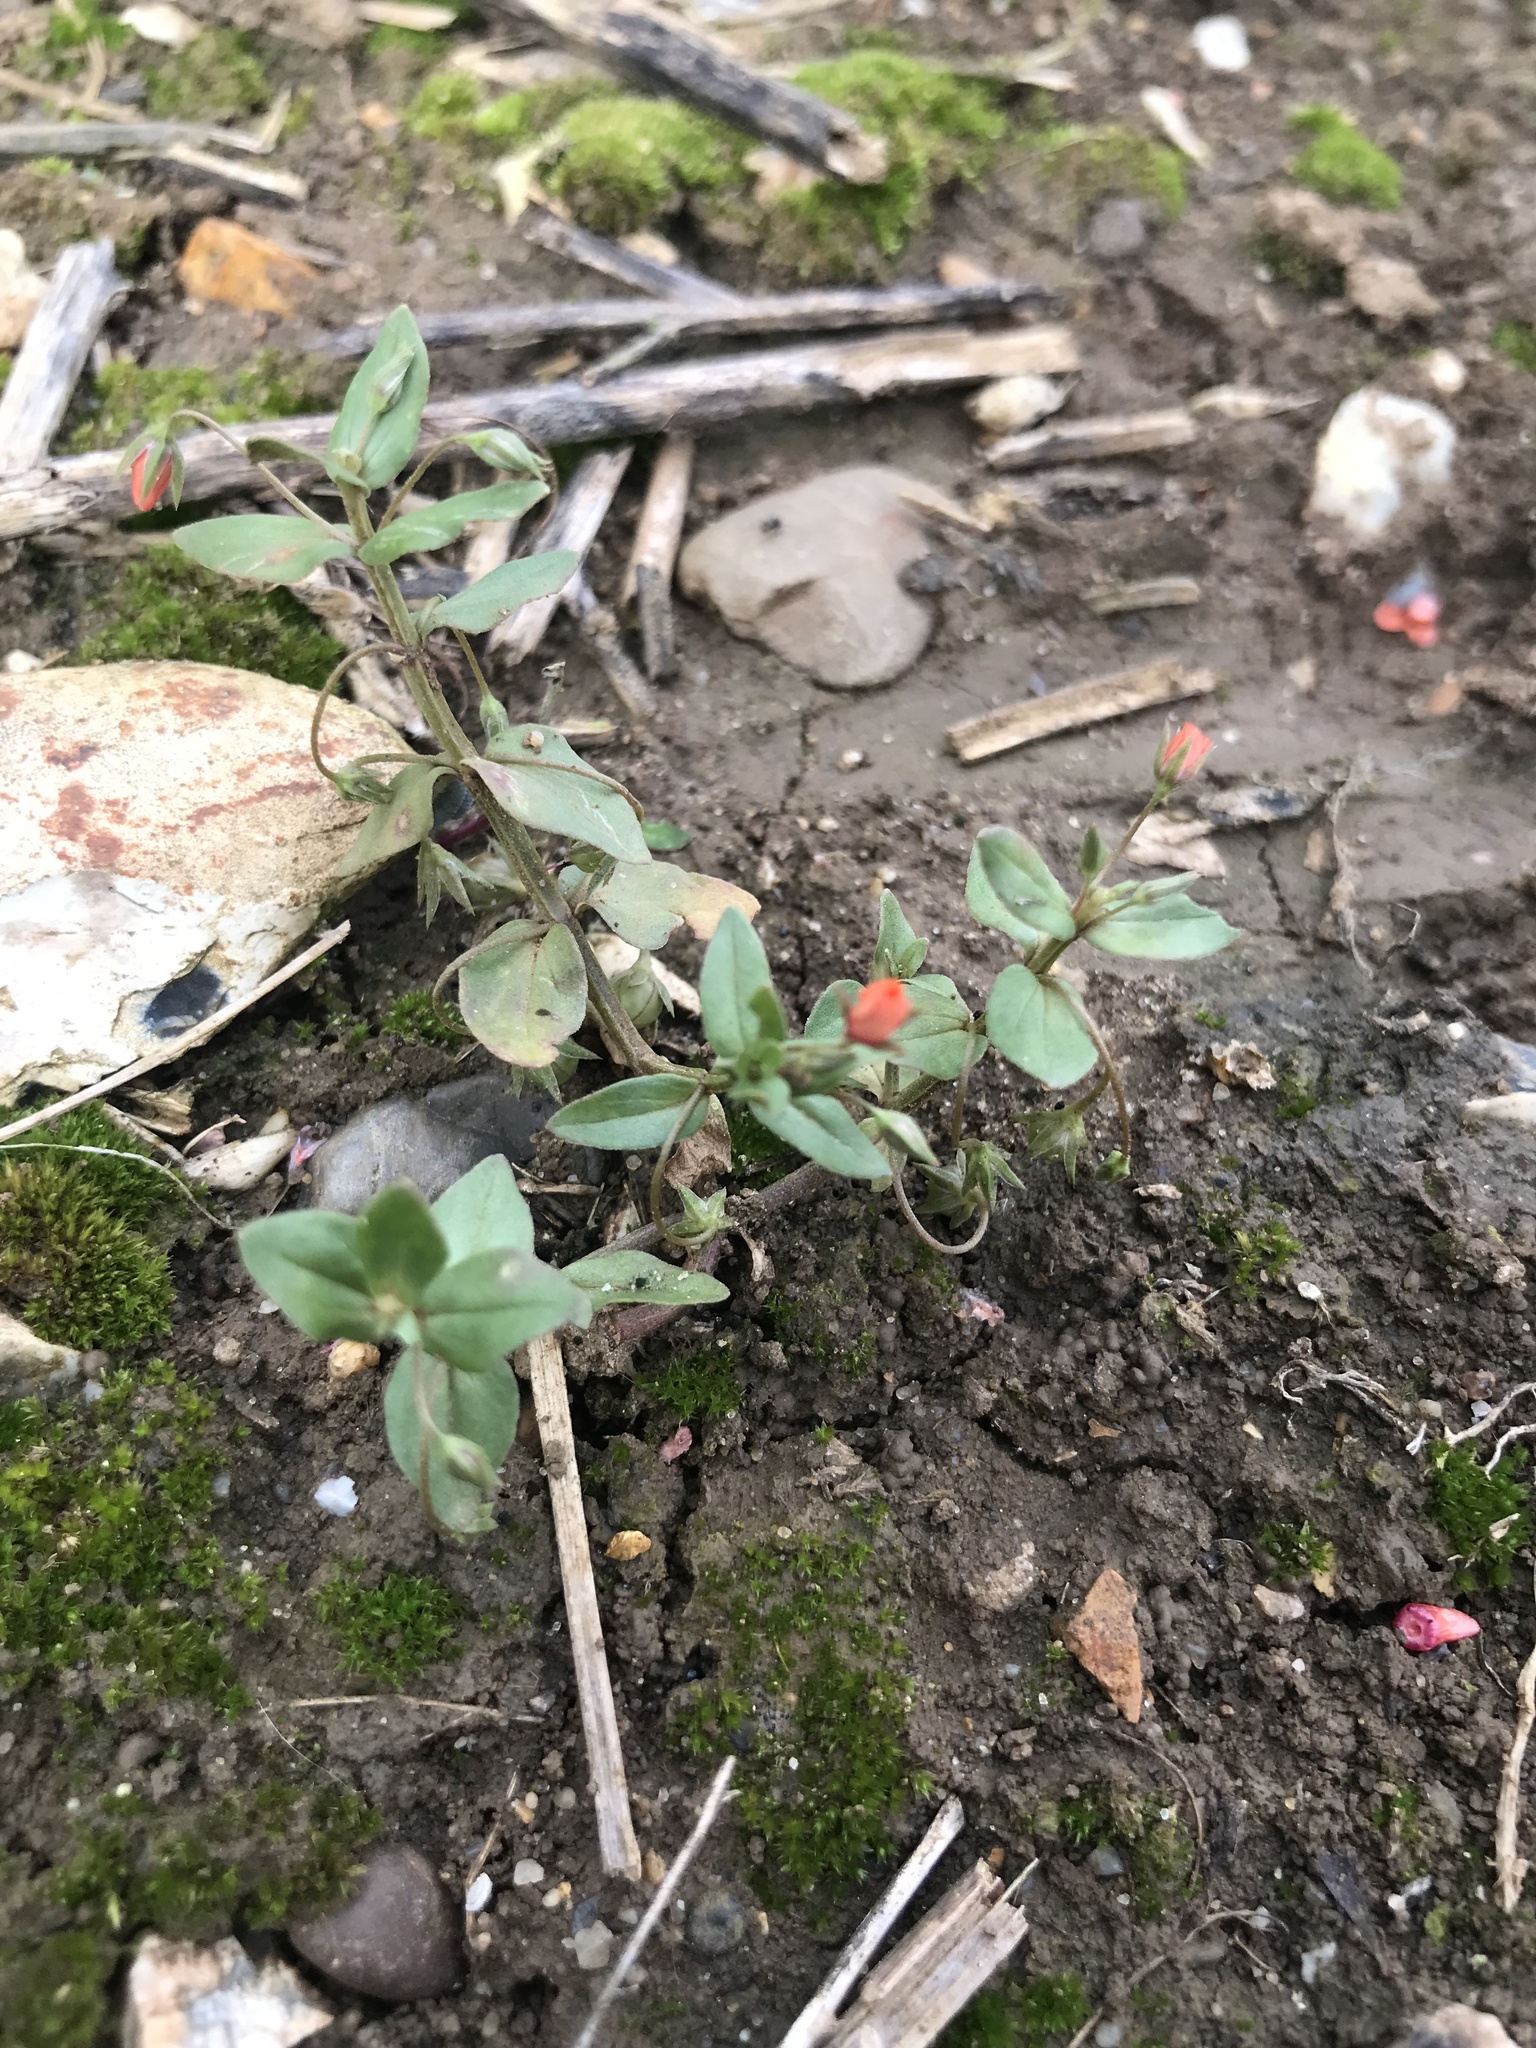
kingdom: Plantae
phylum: Tracheophyta
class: Magnoliopsida
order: Ericales
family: Primulaceae
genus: Lysimachia
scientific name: Lysimachia arvensis
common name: Scarlet pimpernel
